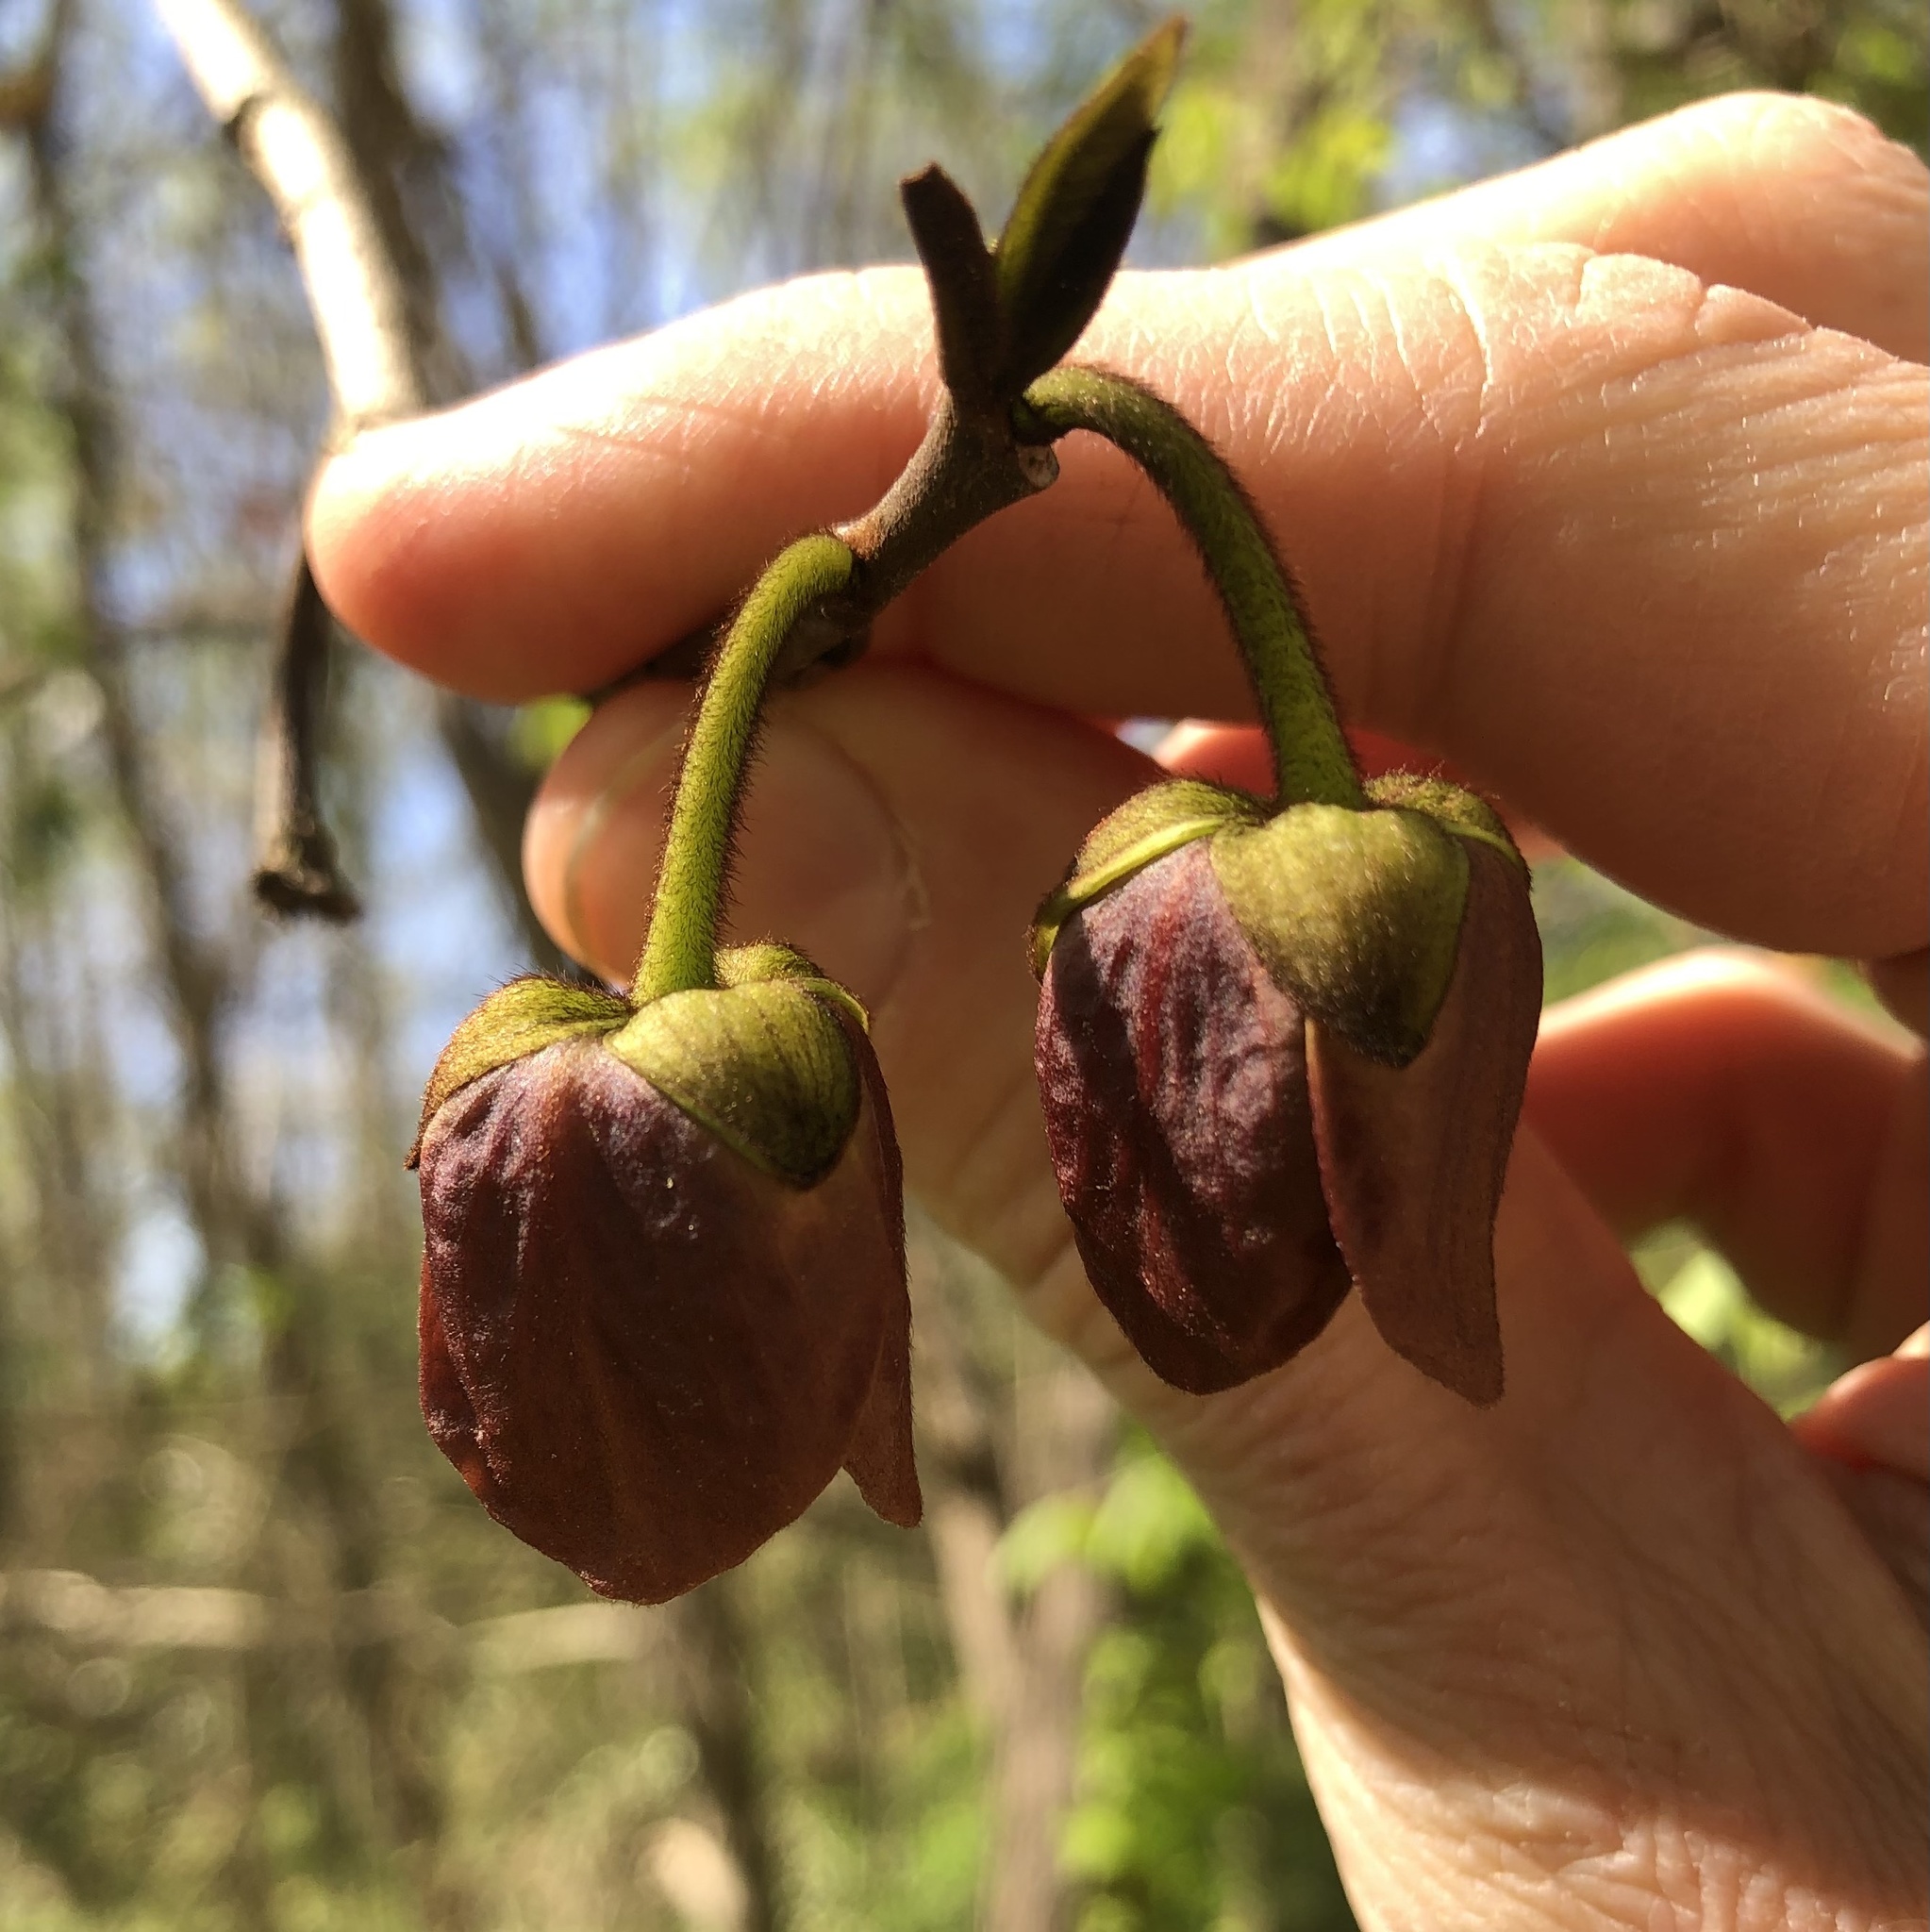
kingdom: Plantae
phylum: Tracheophyta
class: Magnoliopsida
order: Magnoliales
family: Annonaceae
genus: Asimina
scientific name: Asimina triloba
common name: Dog-banana
